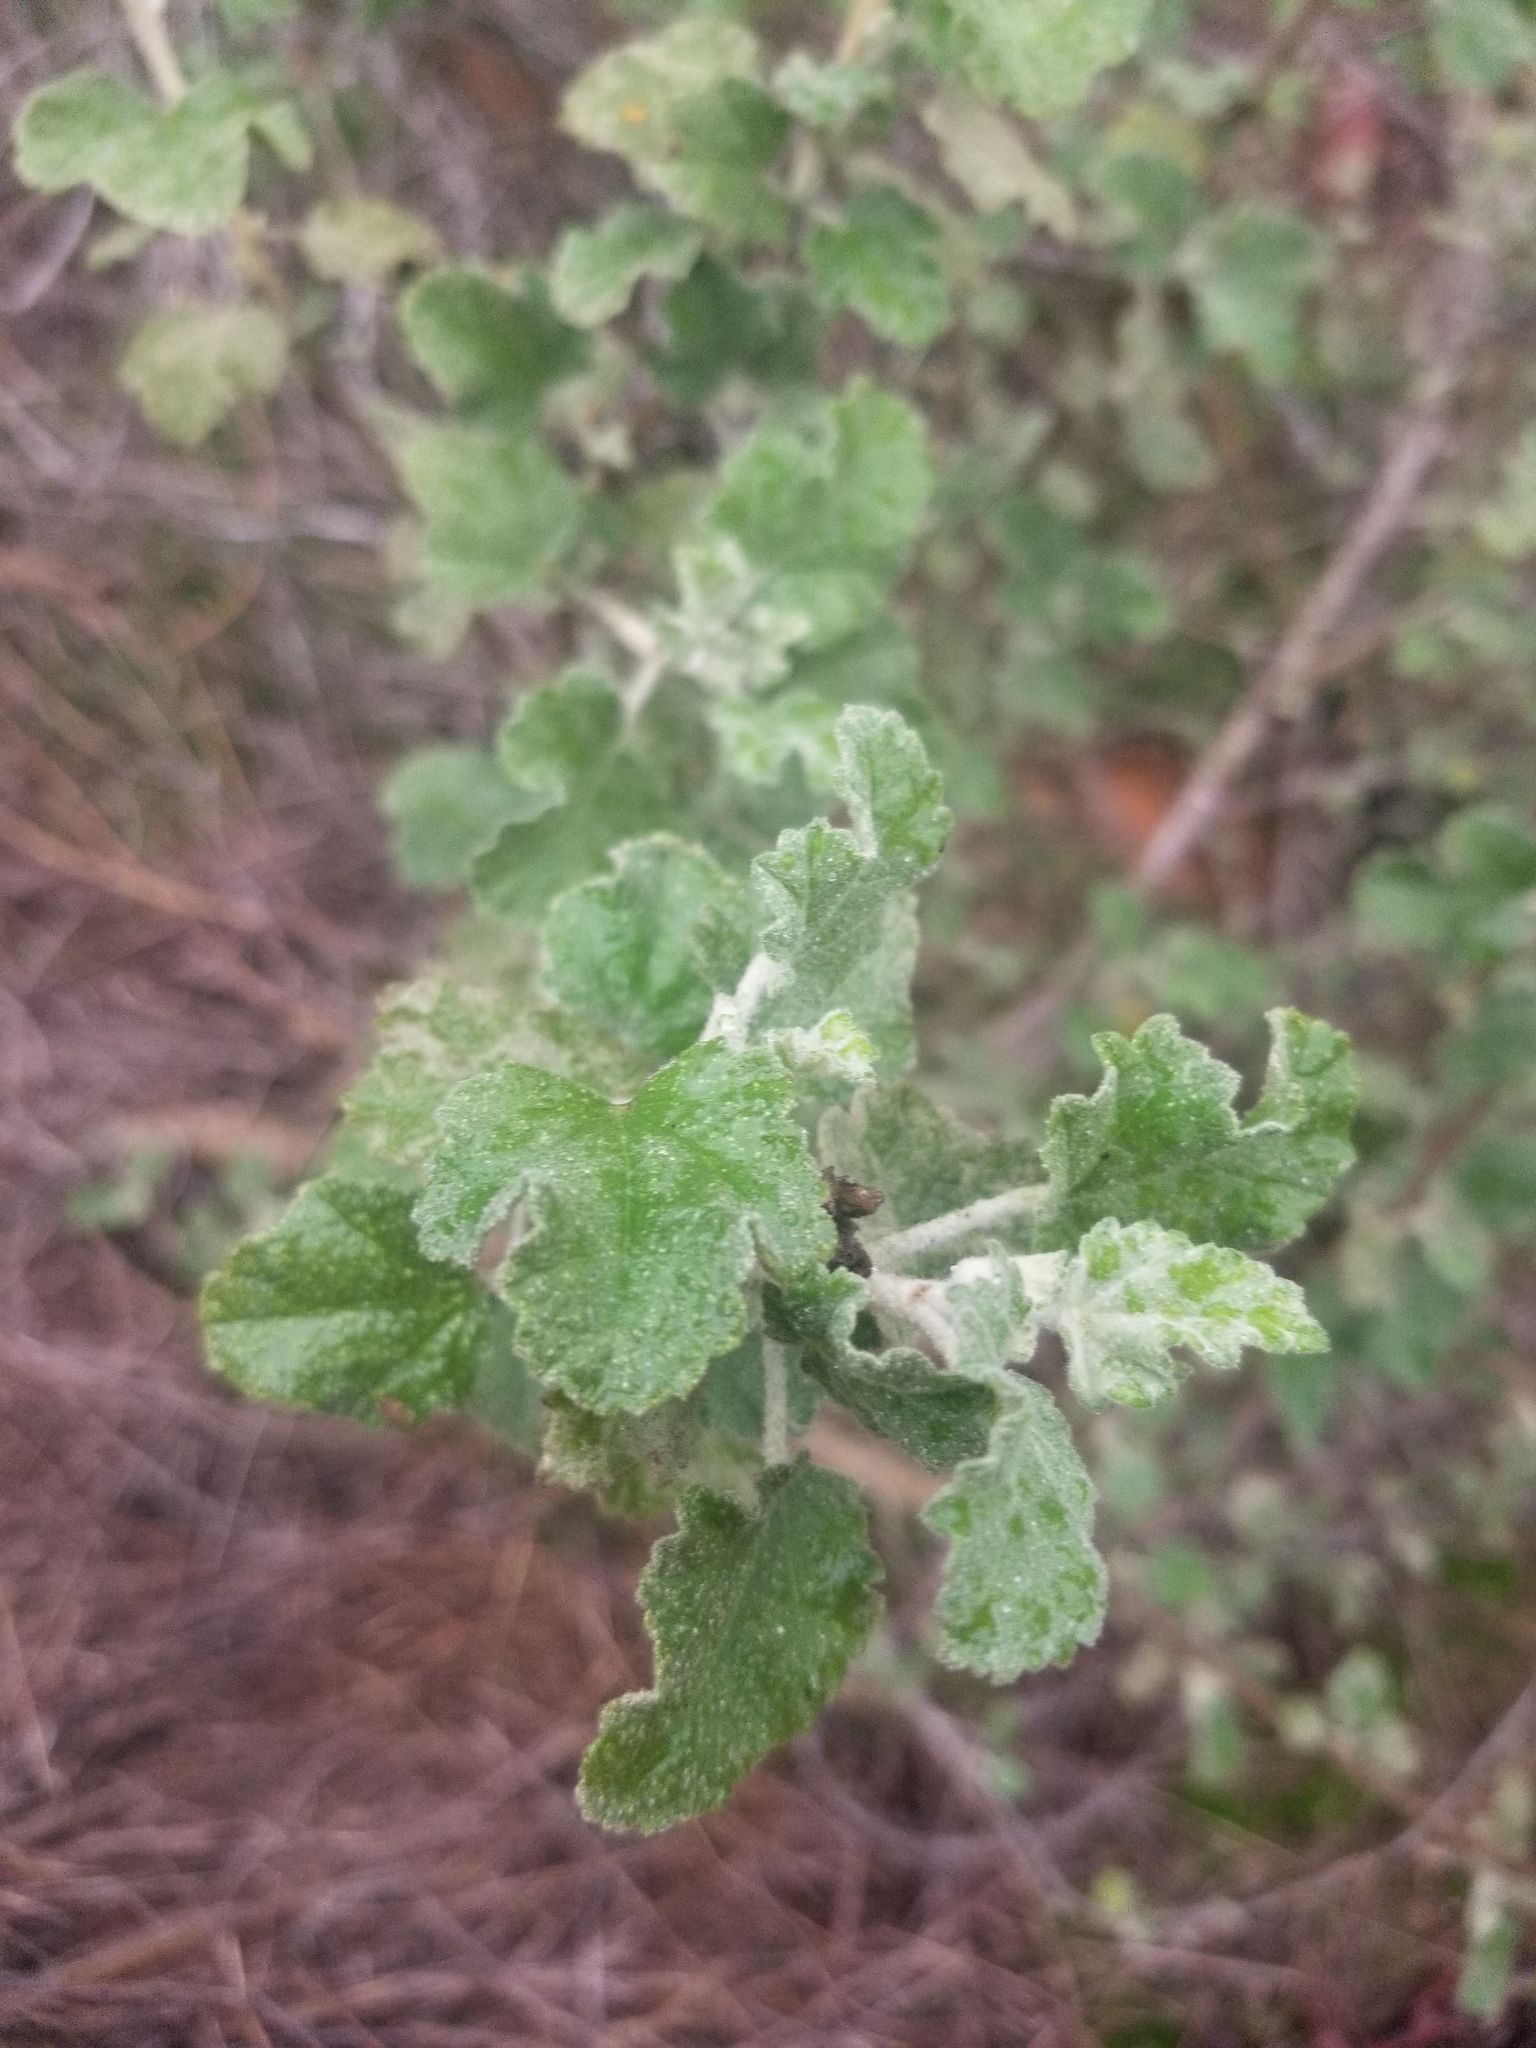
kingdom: Plantae
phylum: Tracheophyta
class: Magnoliopsida
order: Malvales
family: Malvaceae
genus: Malacothamnus
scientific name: Malacothamnus fasciculatus
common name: Sant cruz island bush-mallow
